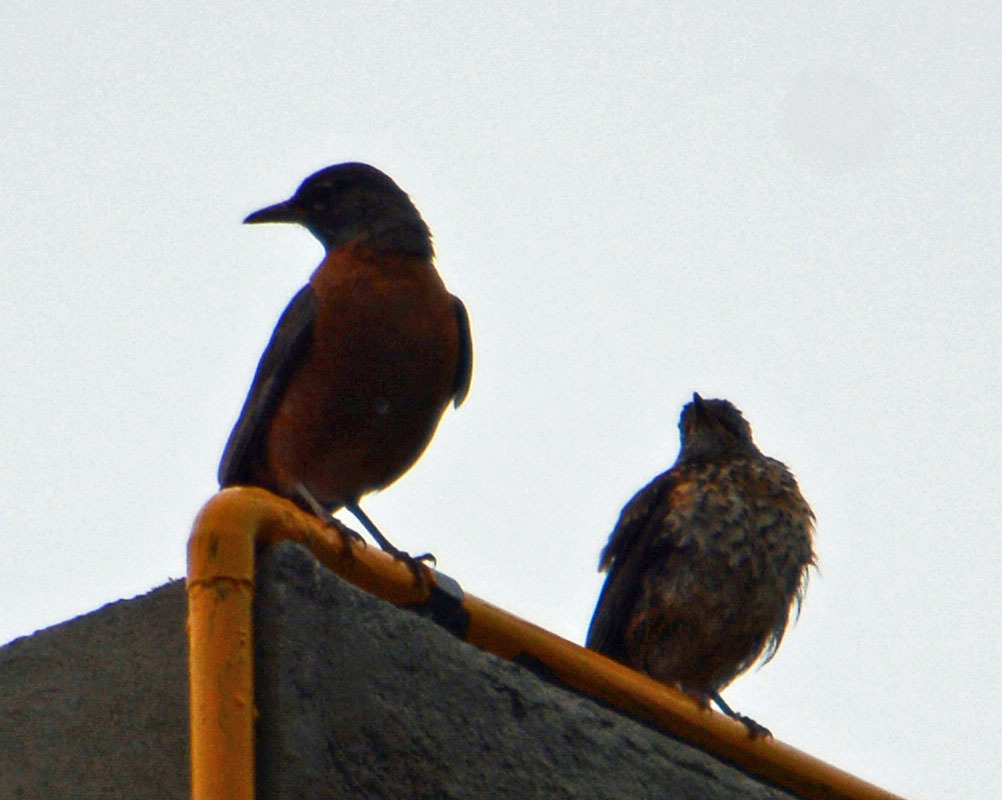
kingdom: Animalia
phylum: Chordata
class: Aves
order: Passeriformes
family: Turdidae
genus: Turdus
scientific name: Turdus migratorius
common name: American robin
